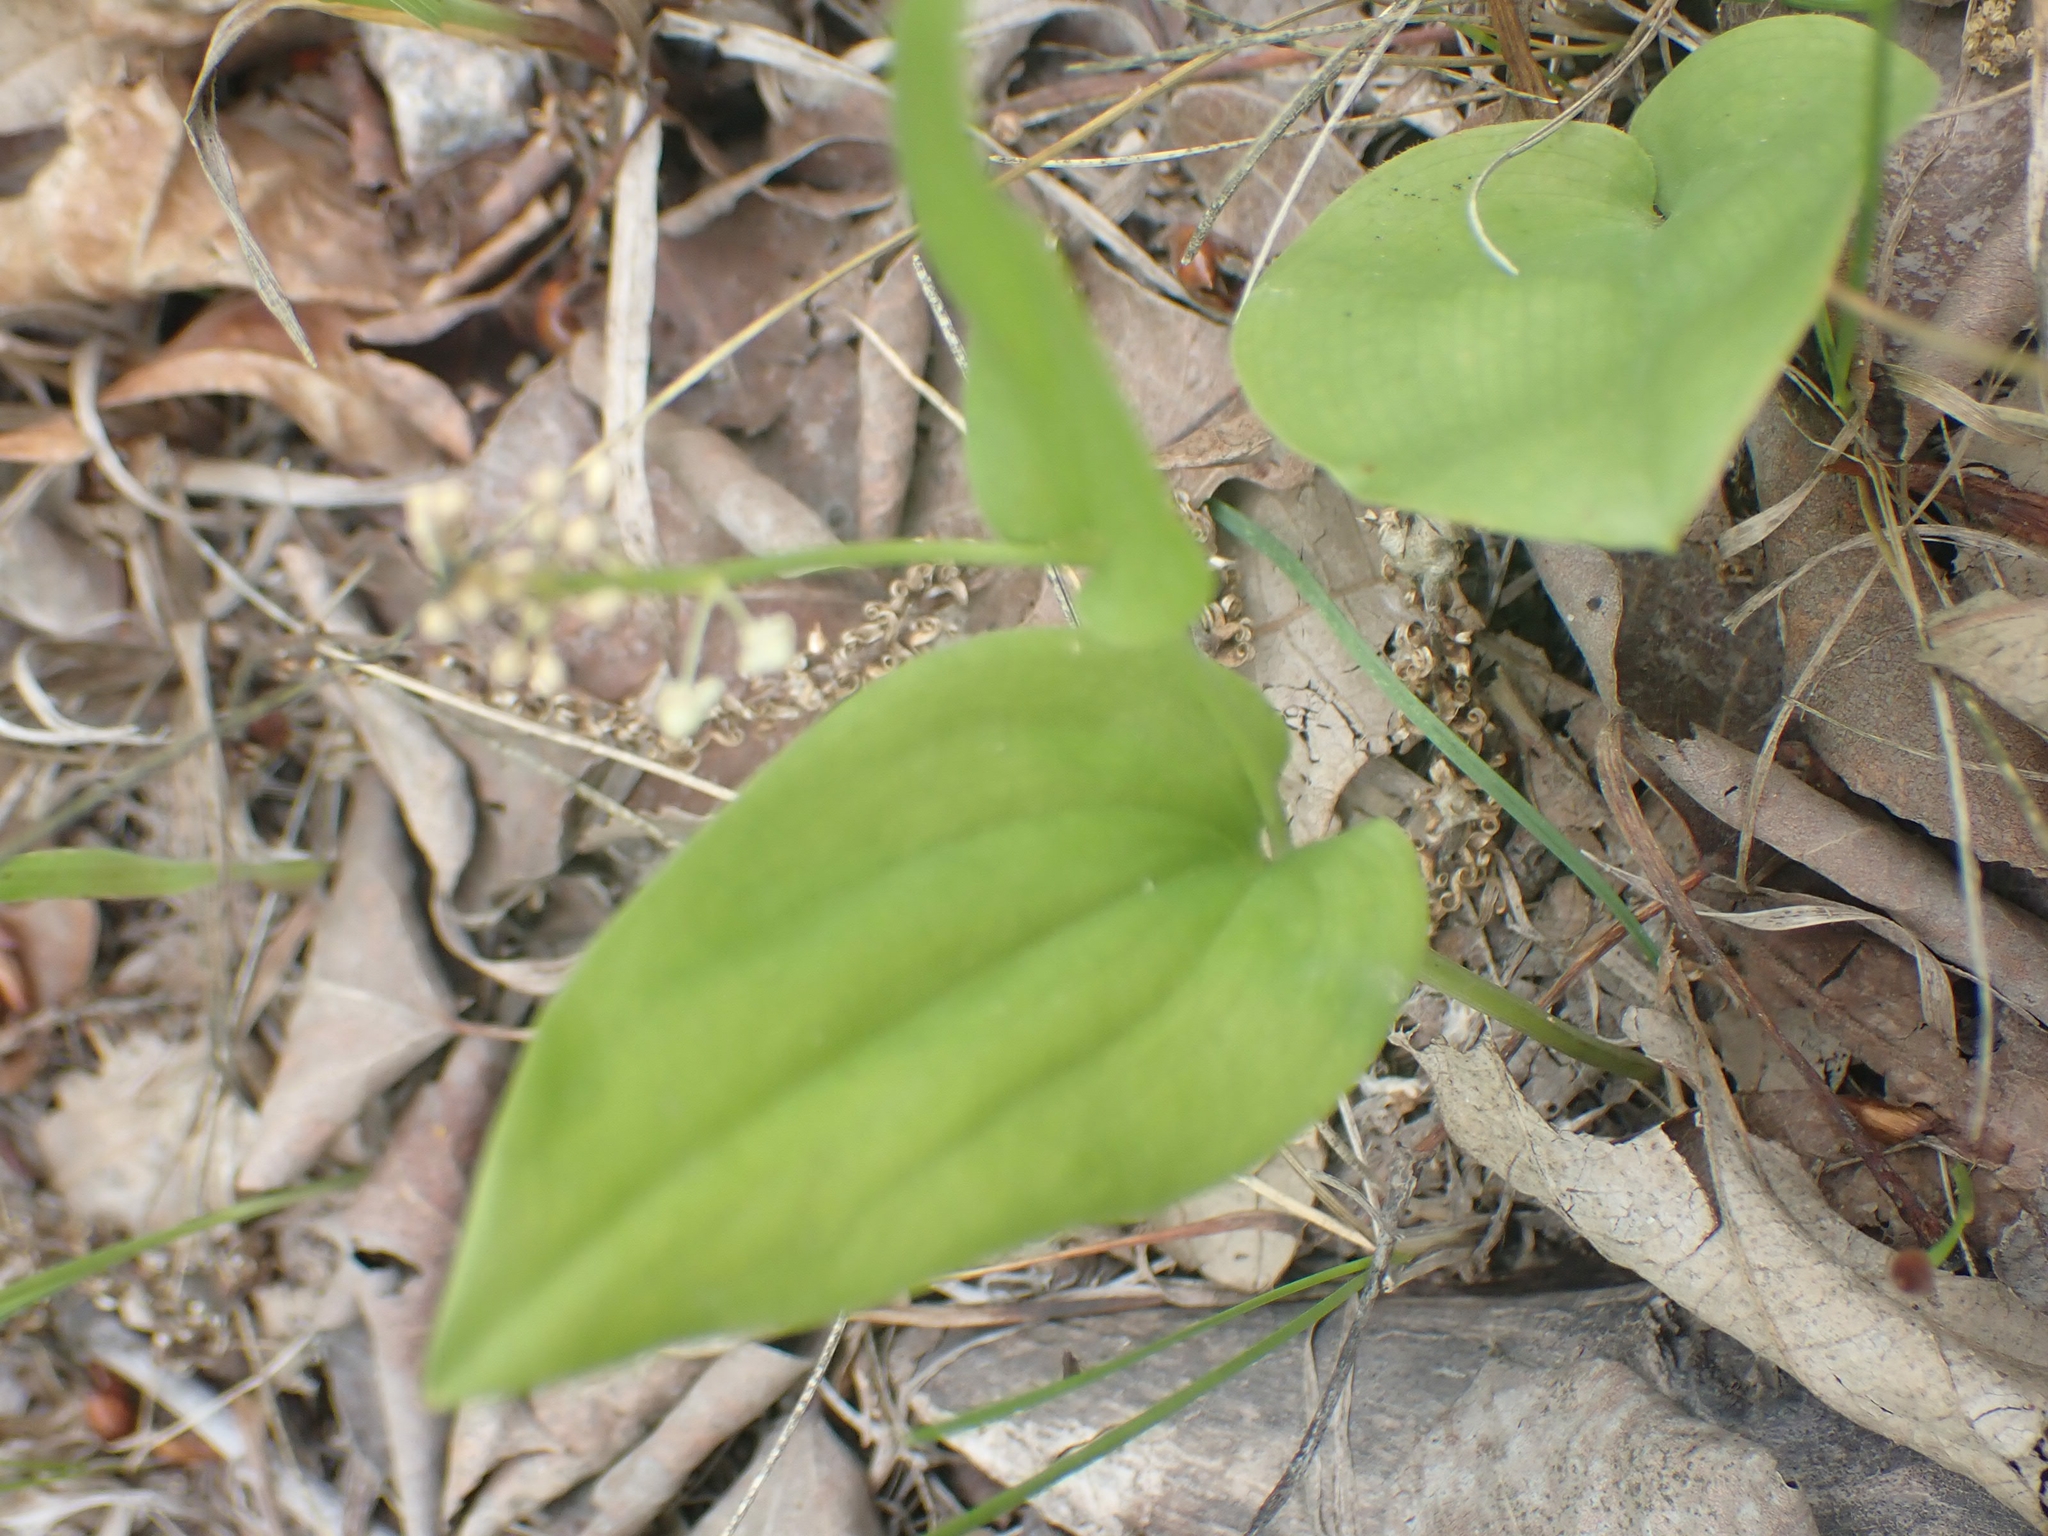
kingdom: Plantae
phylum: Tracheophyta
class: Liliopsida
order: Asparagales
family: Asparagaceae
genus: Maianthemum
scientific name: Maianthemum canadense
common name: False lily-of-the-valley
